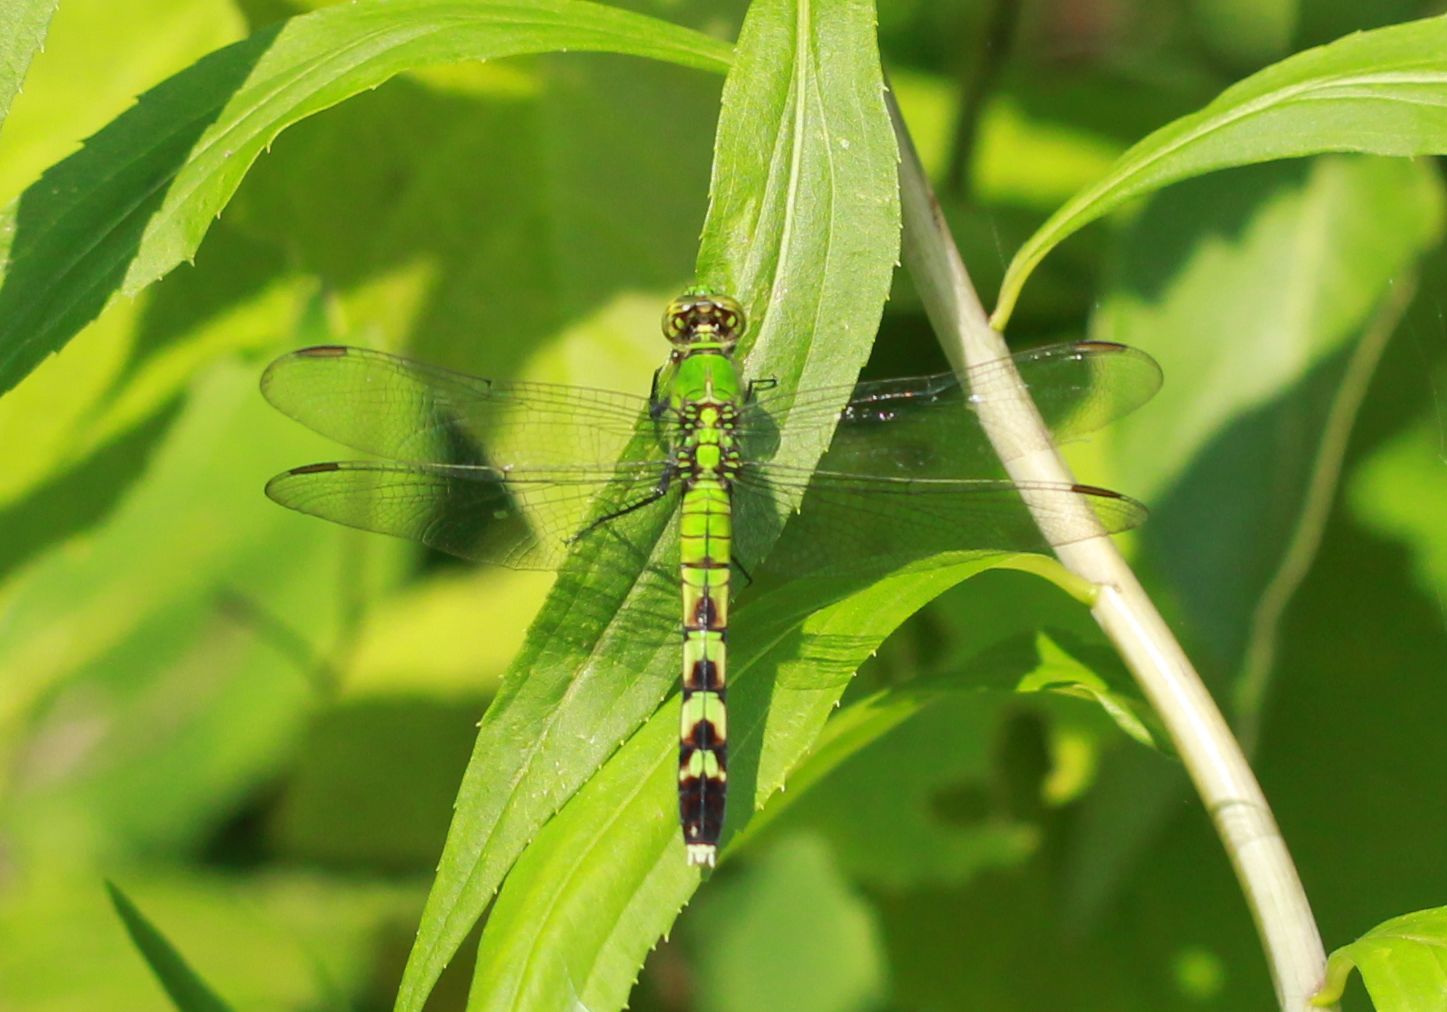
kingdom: Animalia
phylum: Arthropoda
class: Insecta
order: Odonata
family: Libellulidae
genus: Erythemis
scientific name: Erythemis simplicicollis
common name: Eastern pondhawk
